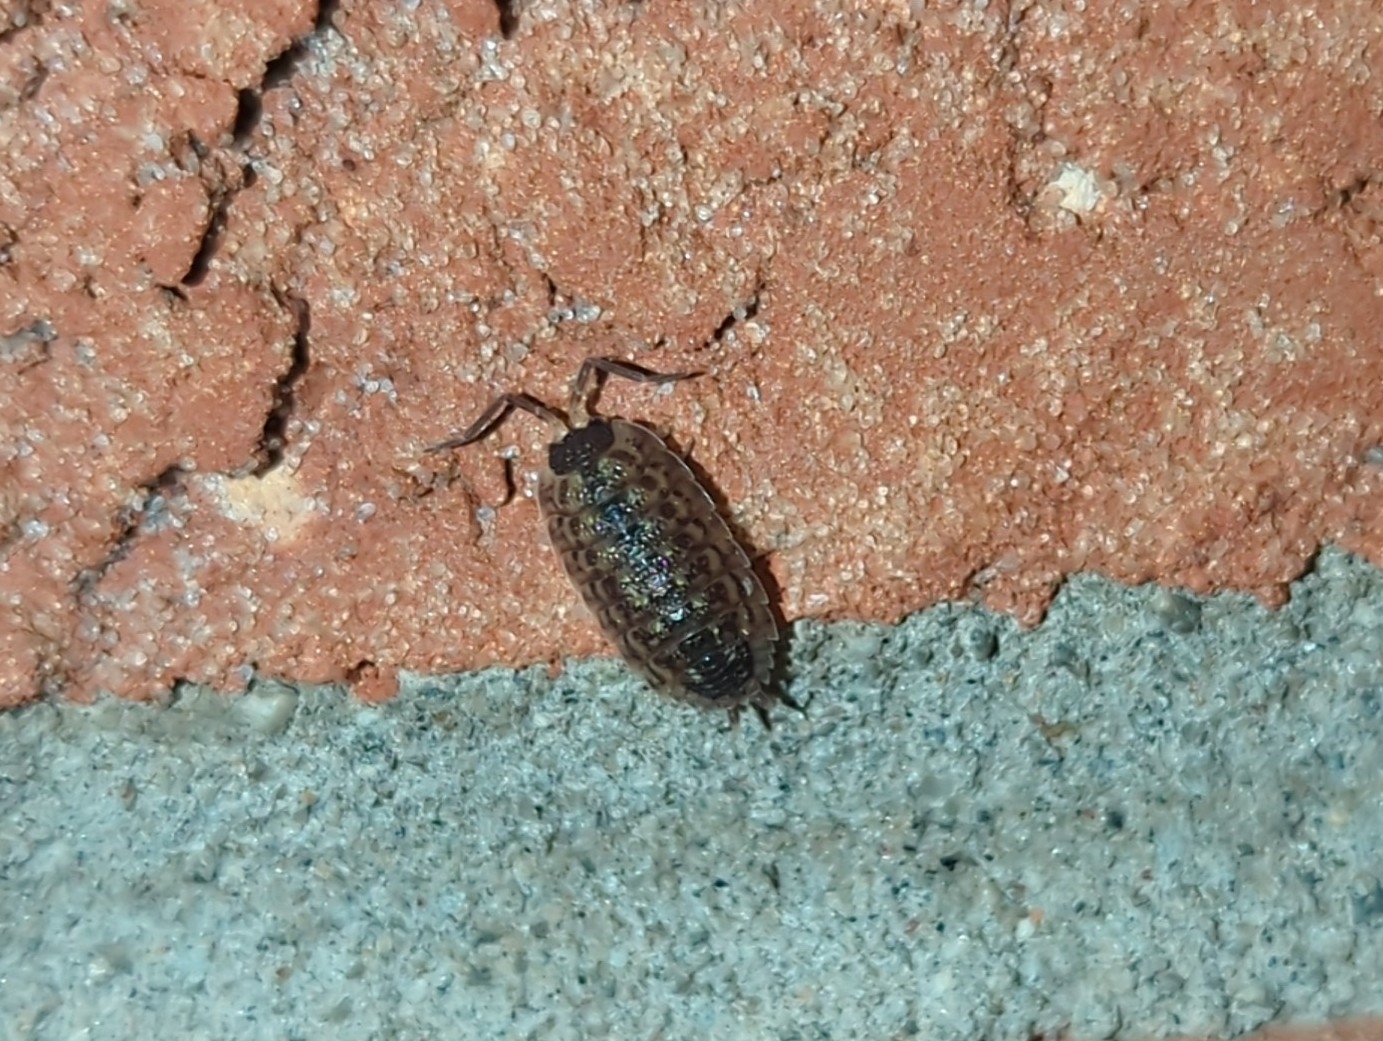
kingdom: Animalia
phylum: Arthropoda
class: Malacostraca
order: Isopoda
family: Porcellionidae
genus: Porcellio
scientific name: Porcellio spinicornis
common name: Painted woodlouse
